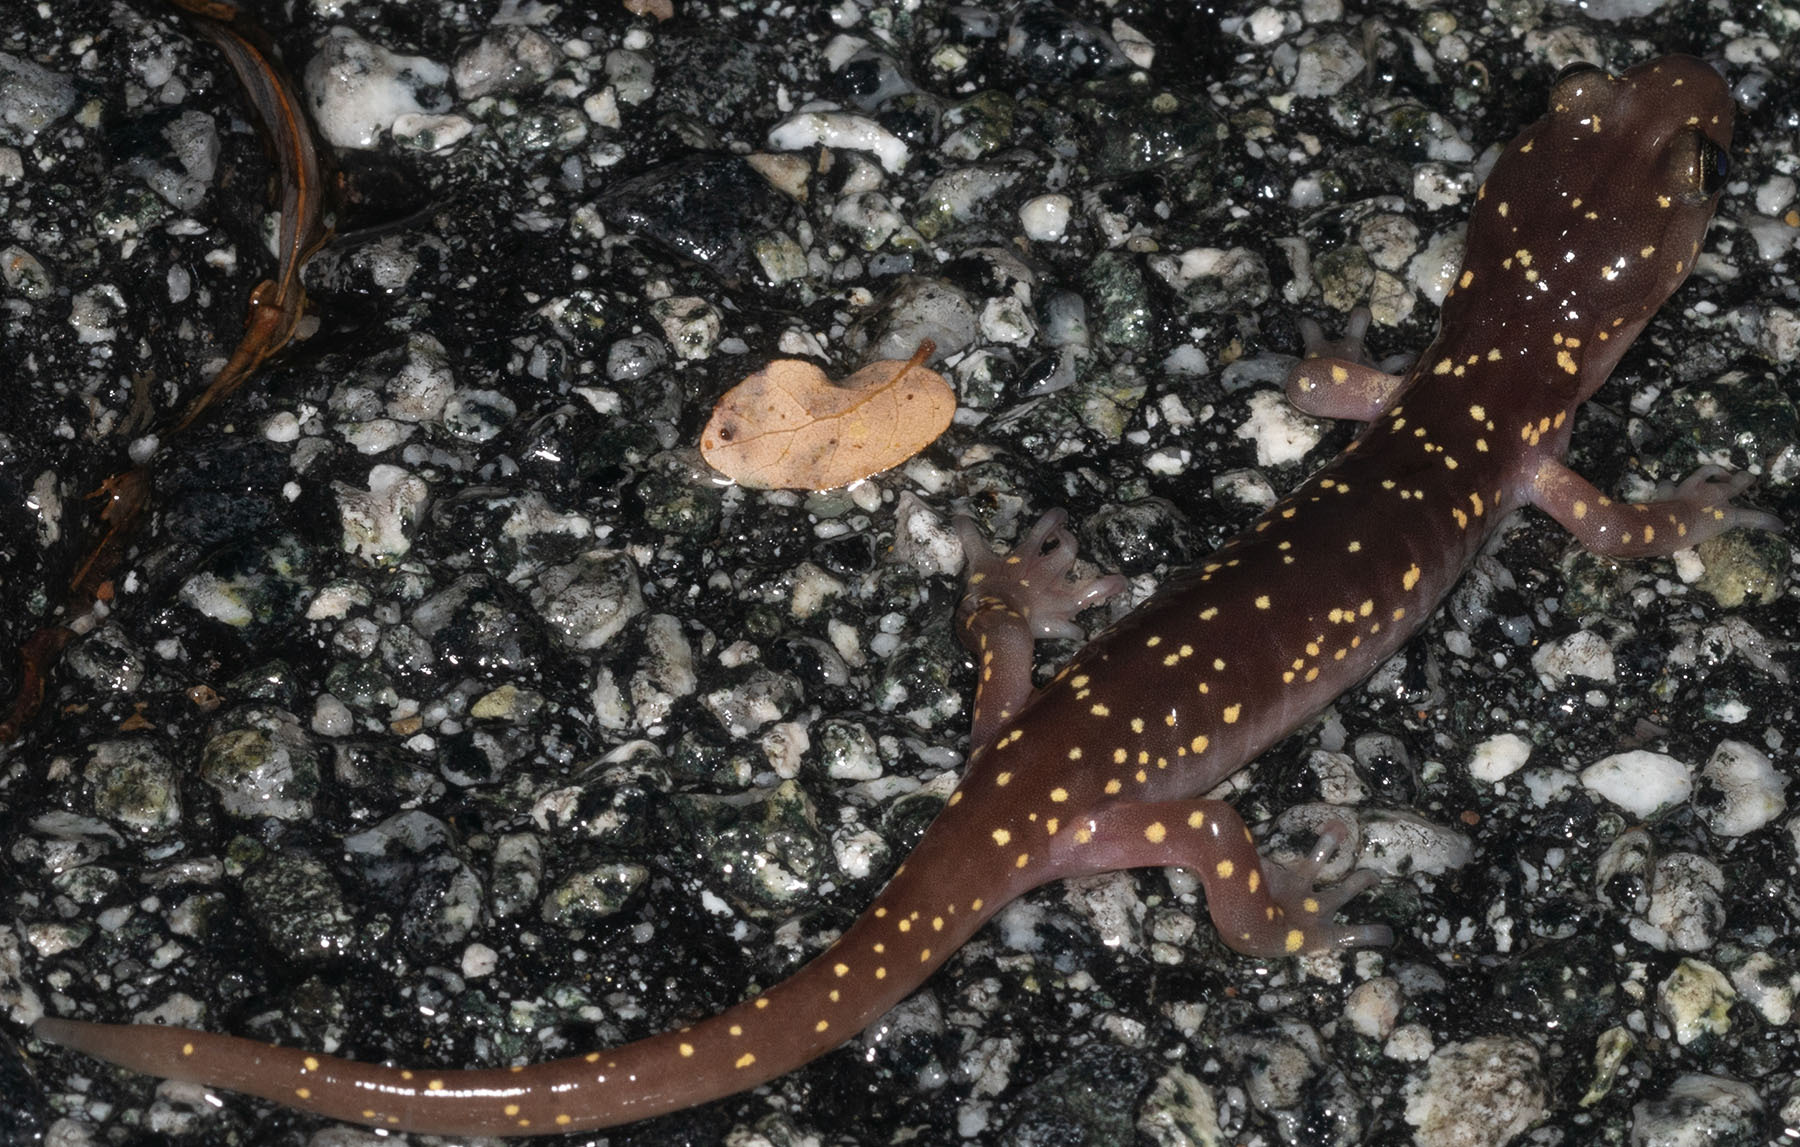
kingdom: Animalia
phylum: Chordata
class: Amphibia
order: Caudata
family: Plethodontidae
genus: Aneides
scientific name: Aneides lugubris
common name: Arboreal salamander
